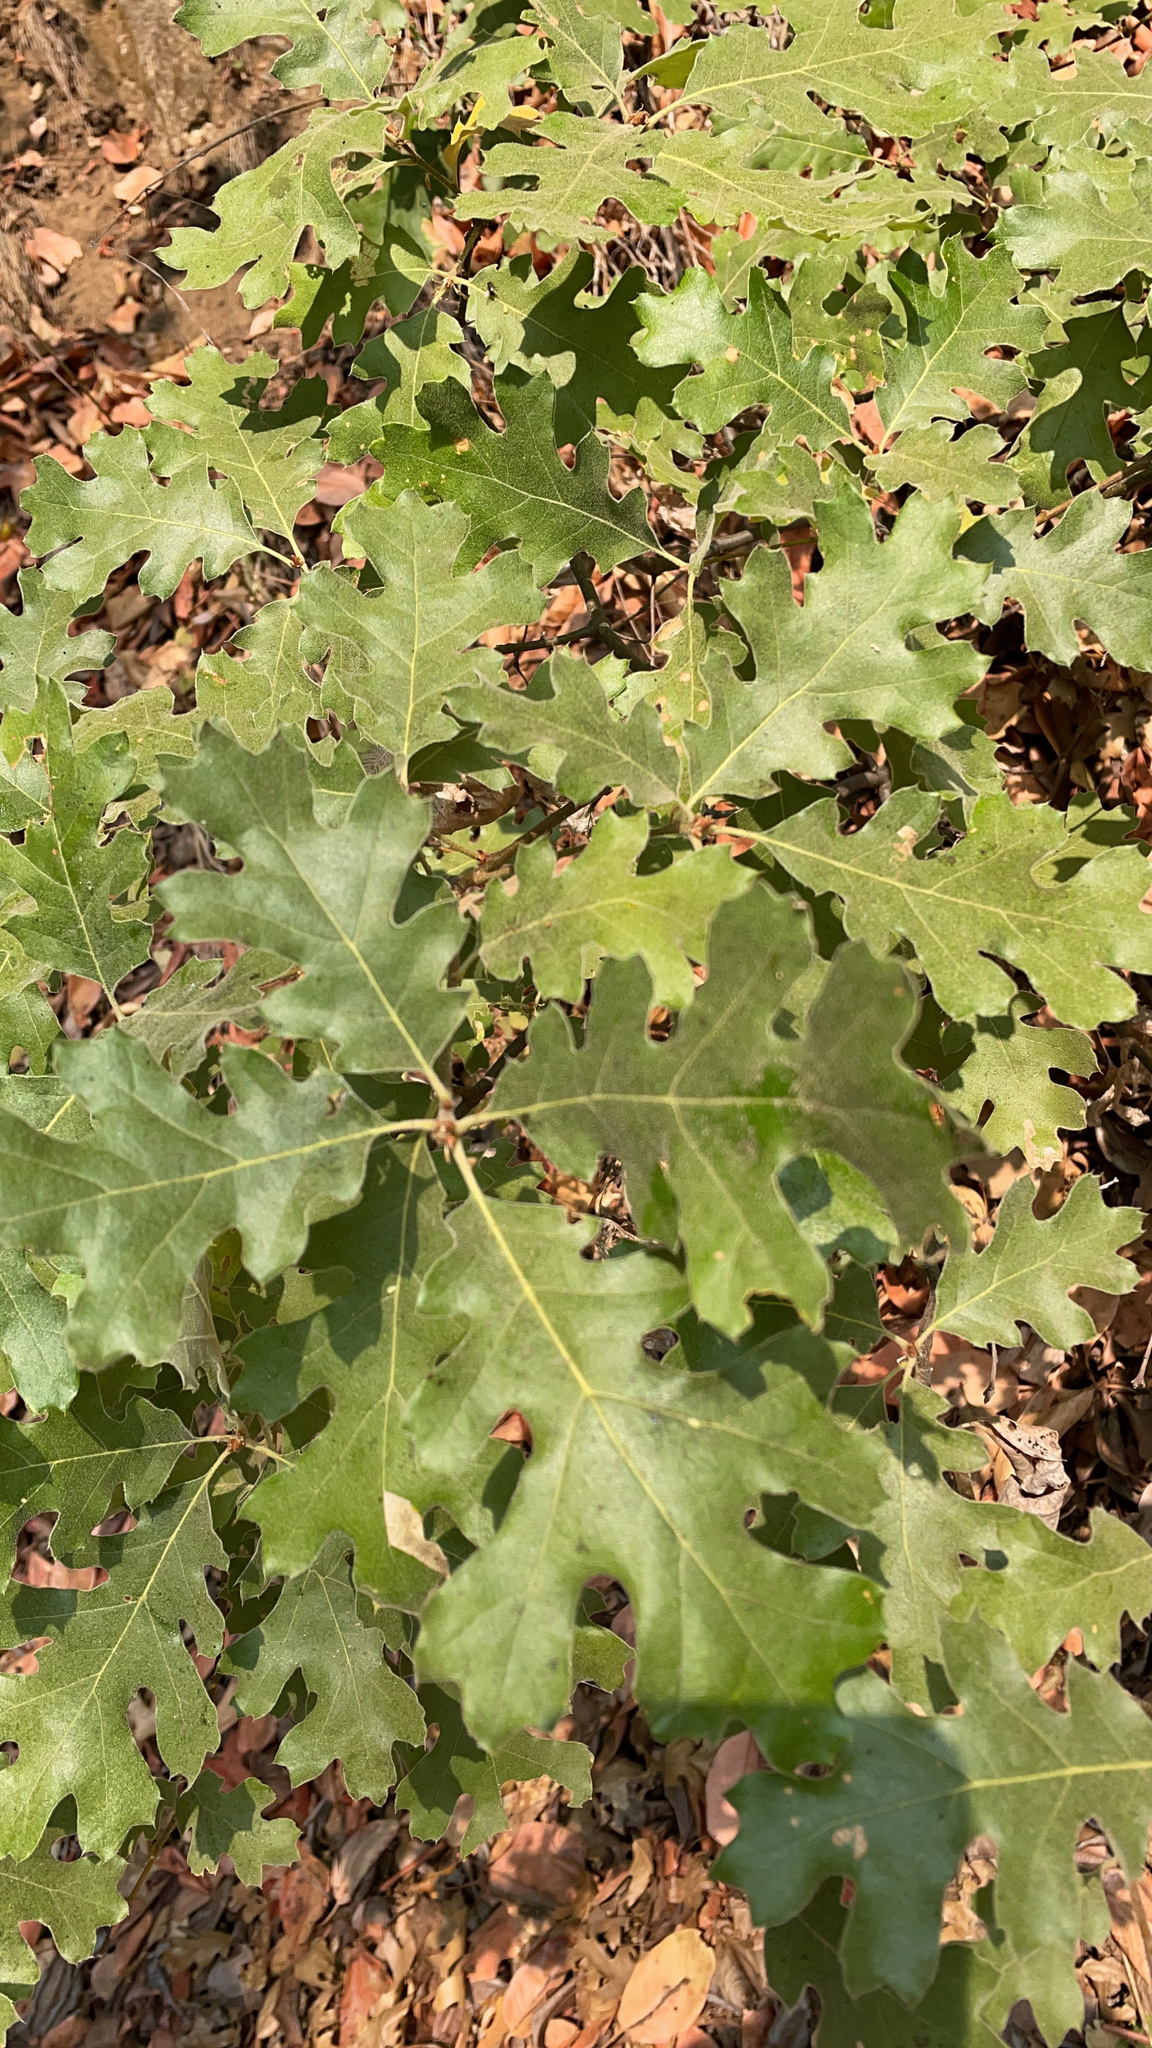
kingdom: Plantae
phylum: Tracheophyta
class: Magnoliopsida
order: Fagales
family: Fagaceae
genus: Quercus
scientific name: Quercus kelloggii
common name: California black oak
